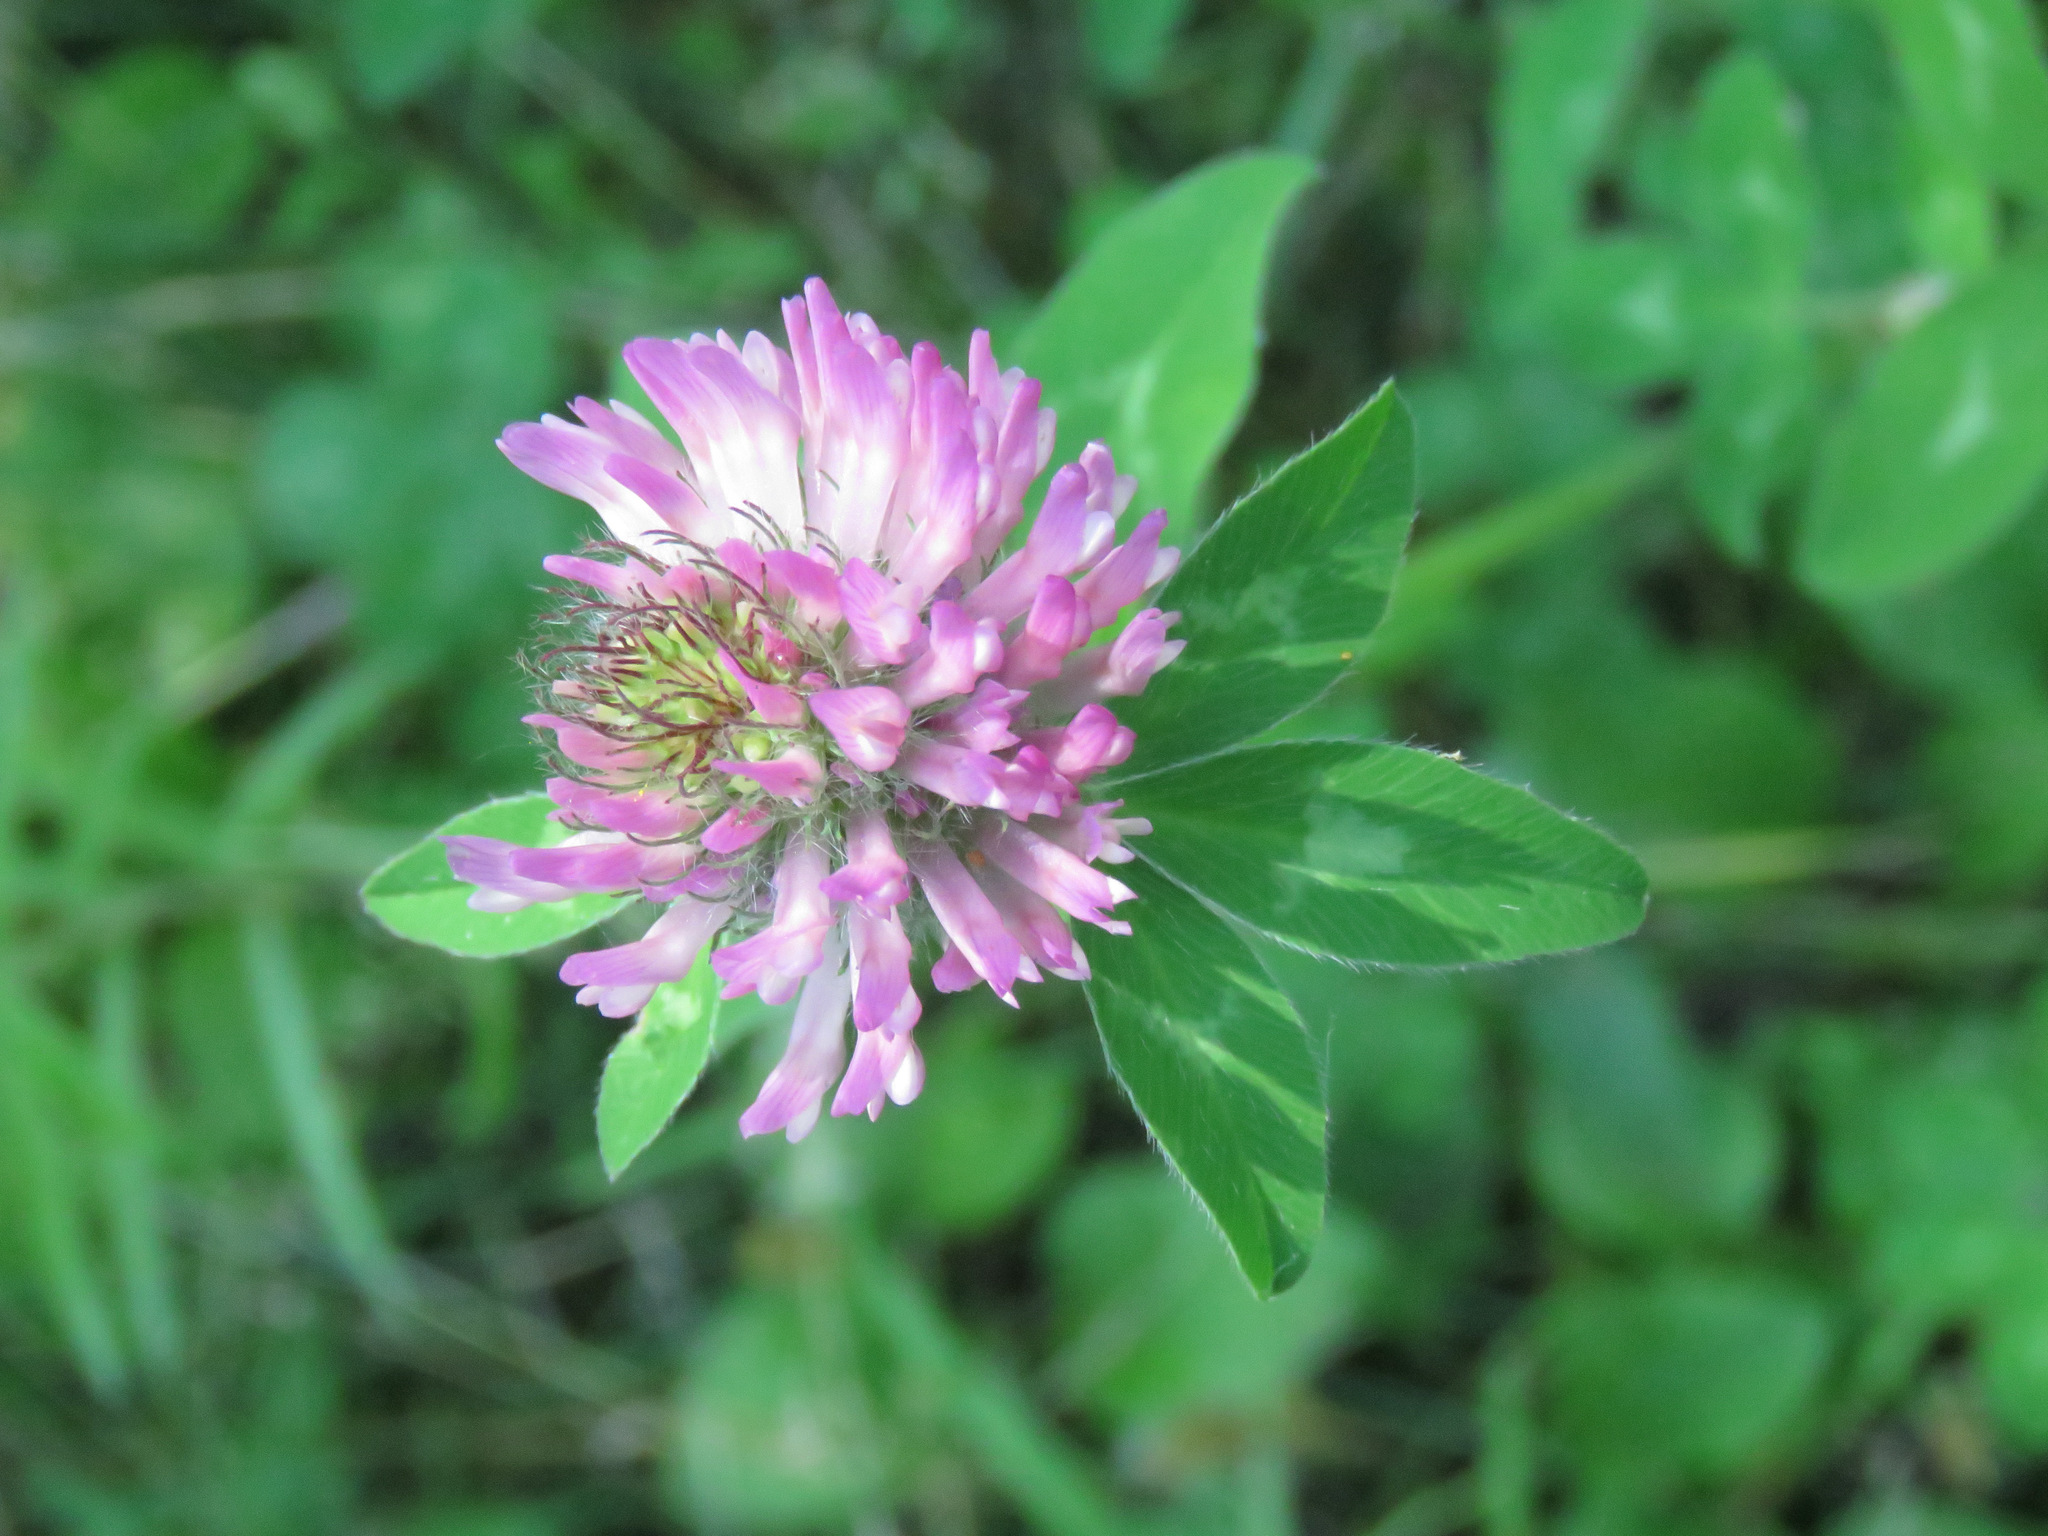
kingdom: Plantae
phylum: Tracheophyta
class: Magnoliopsida
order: Fabales
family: Fabaceae
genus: Trifolium
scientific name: Trifolium pratense
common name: Red clover
